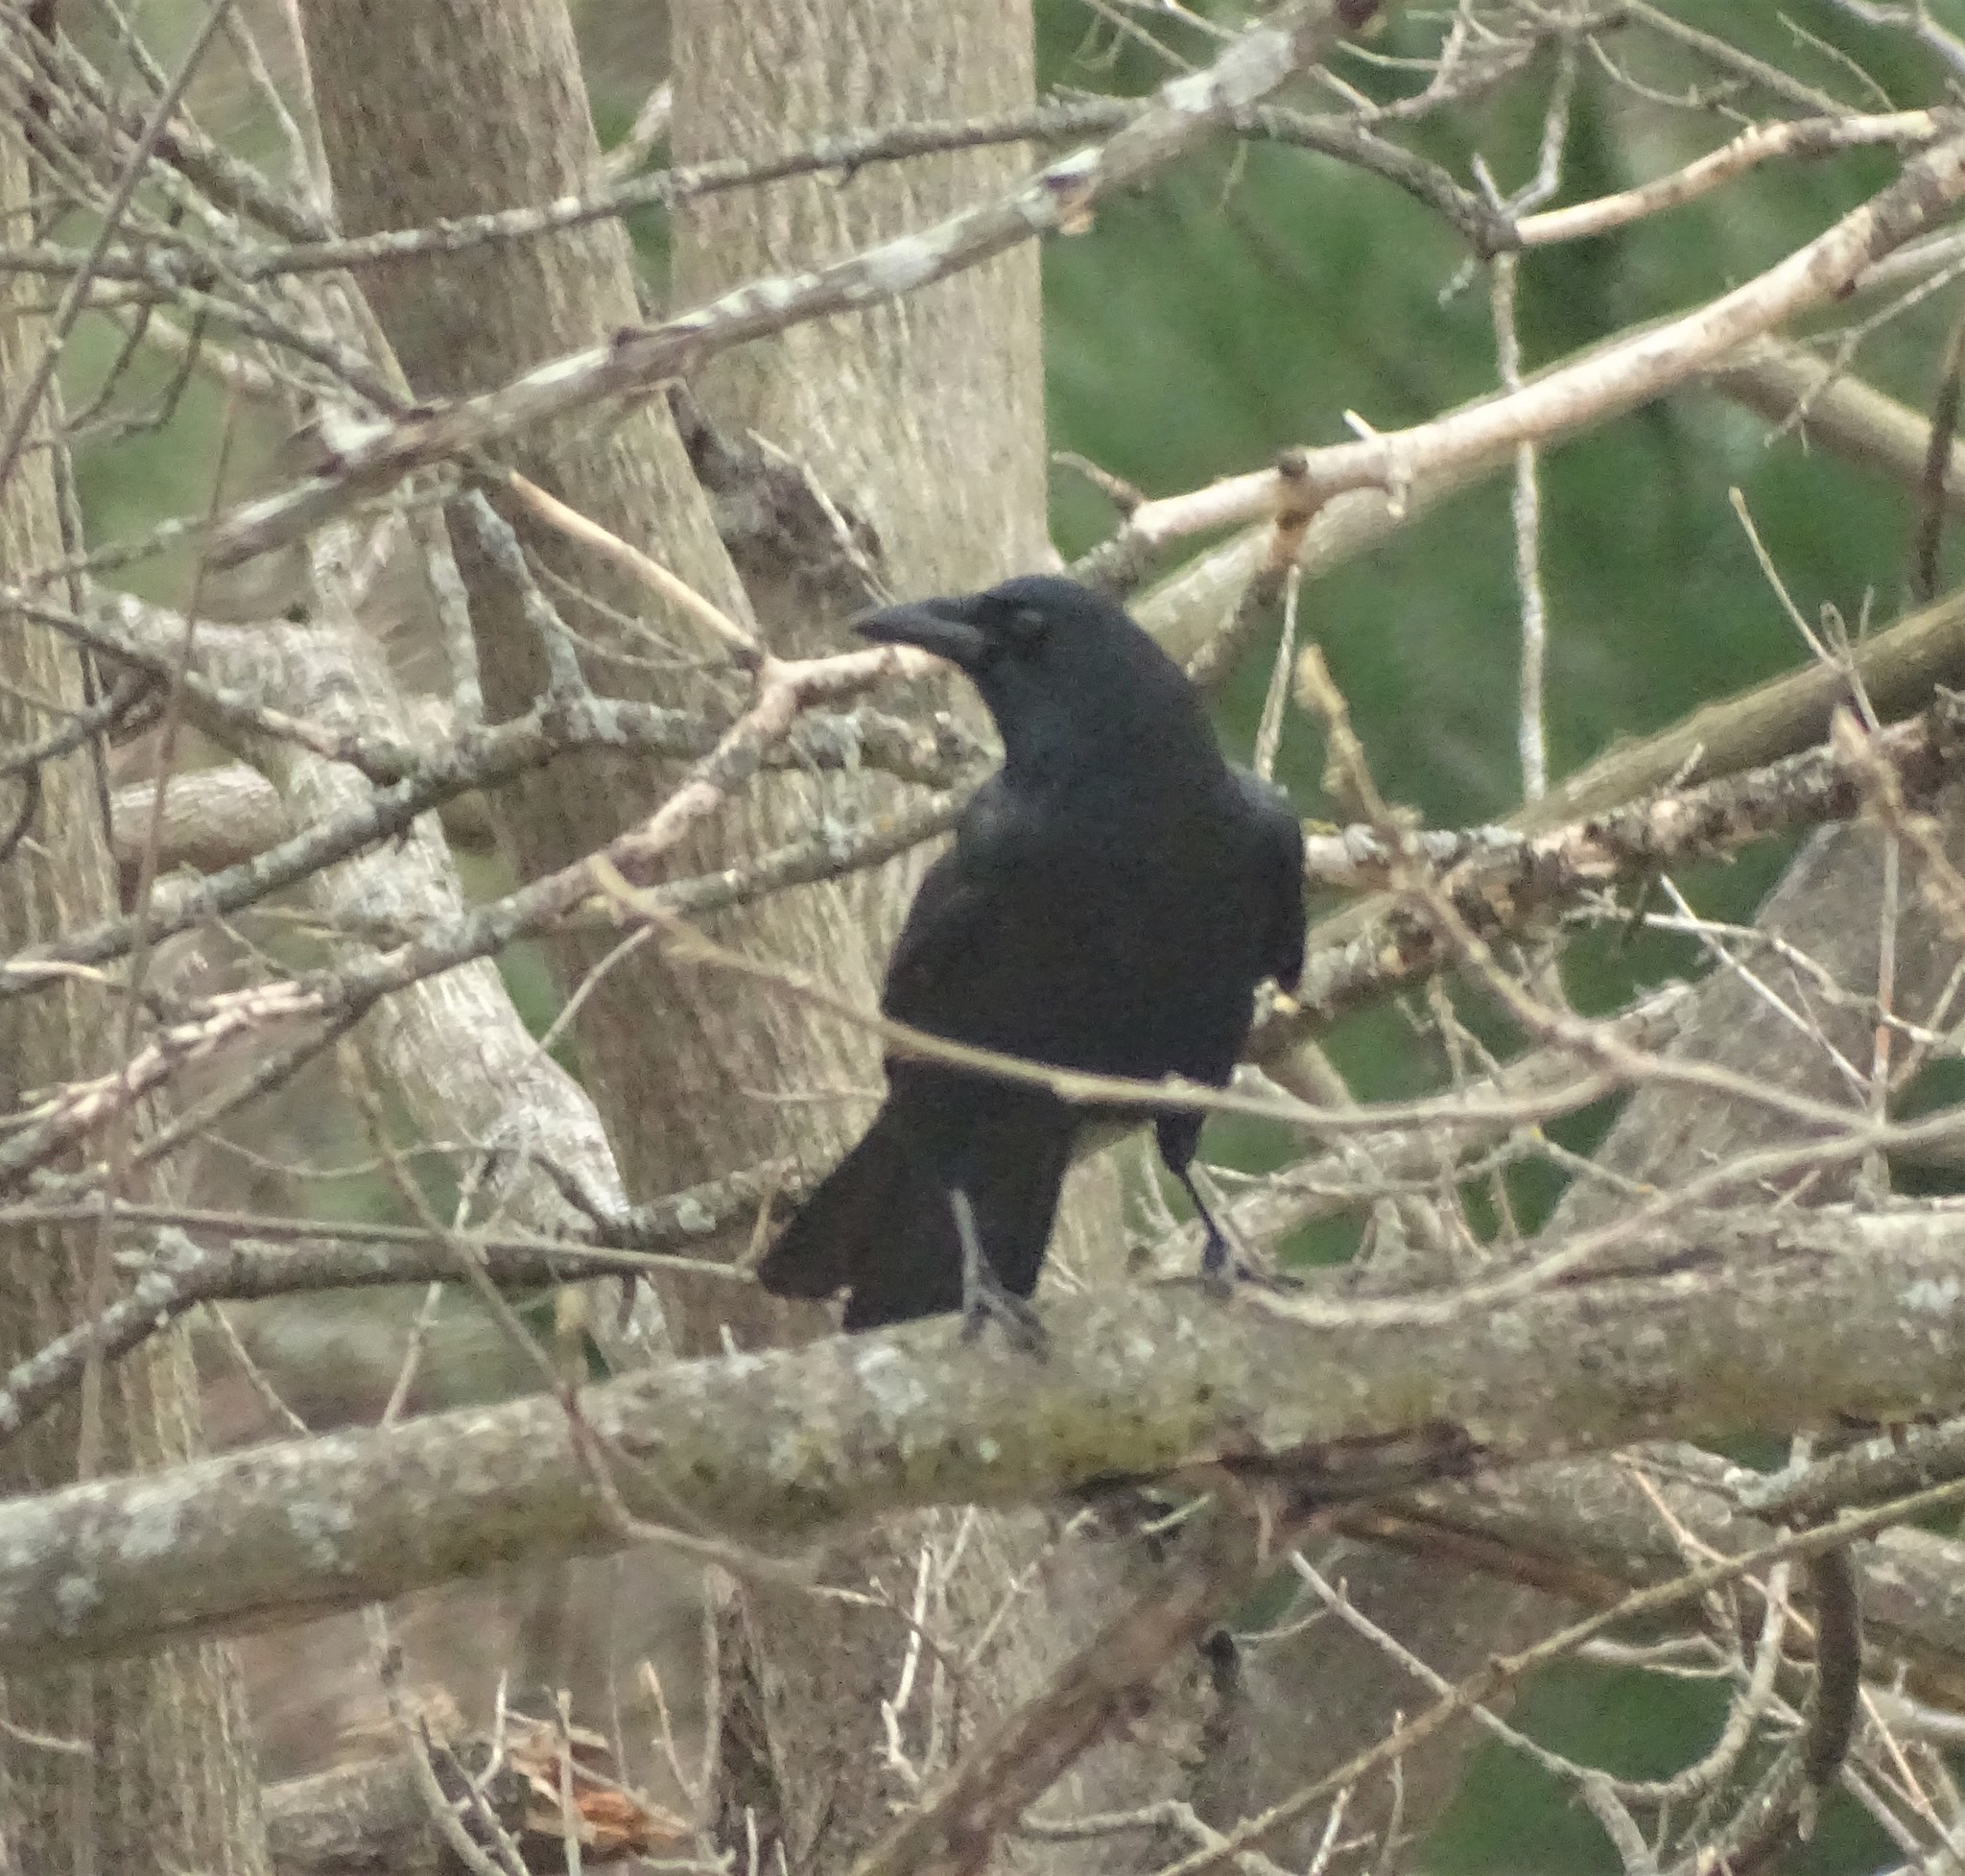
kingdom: Animalia
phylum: Chordata
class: Aves
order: Passeriformes
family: Corvidae
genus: Corvus
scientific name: Corvus brachyrhynchos
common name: American crow
